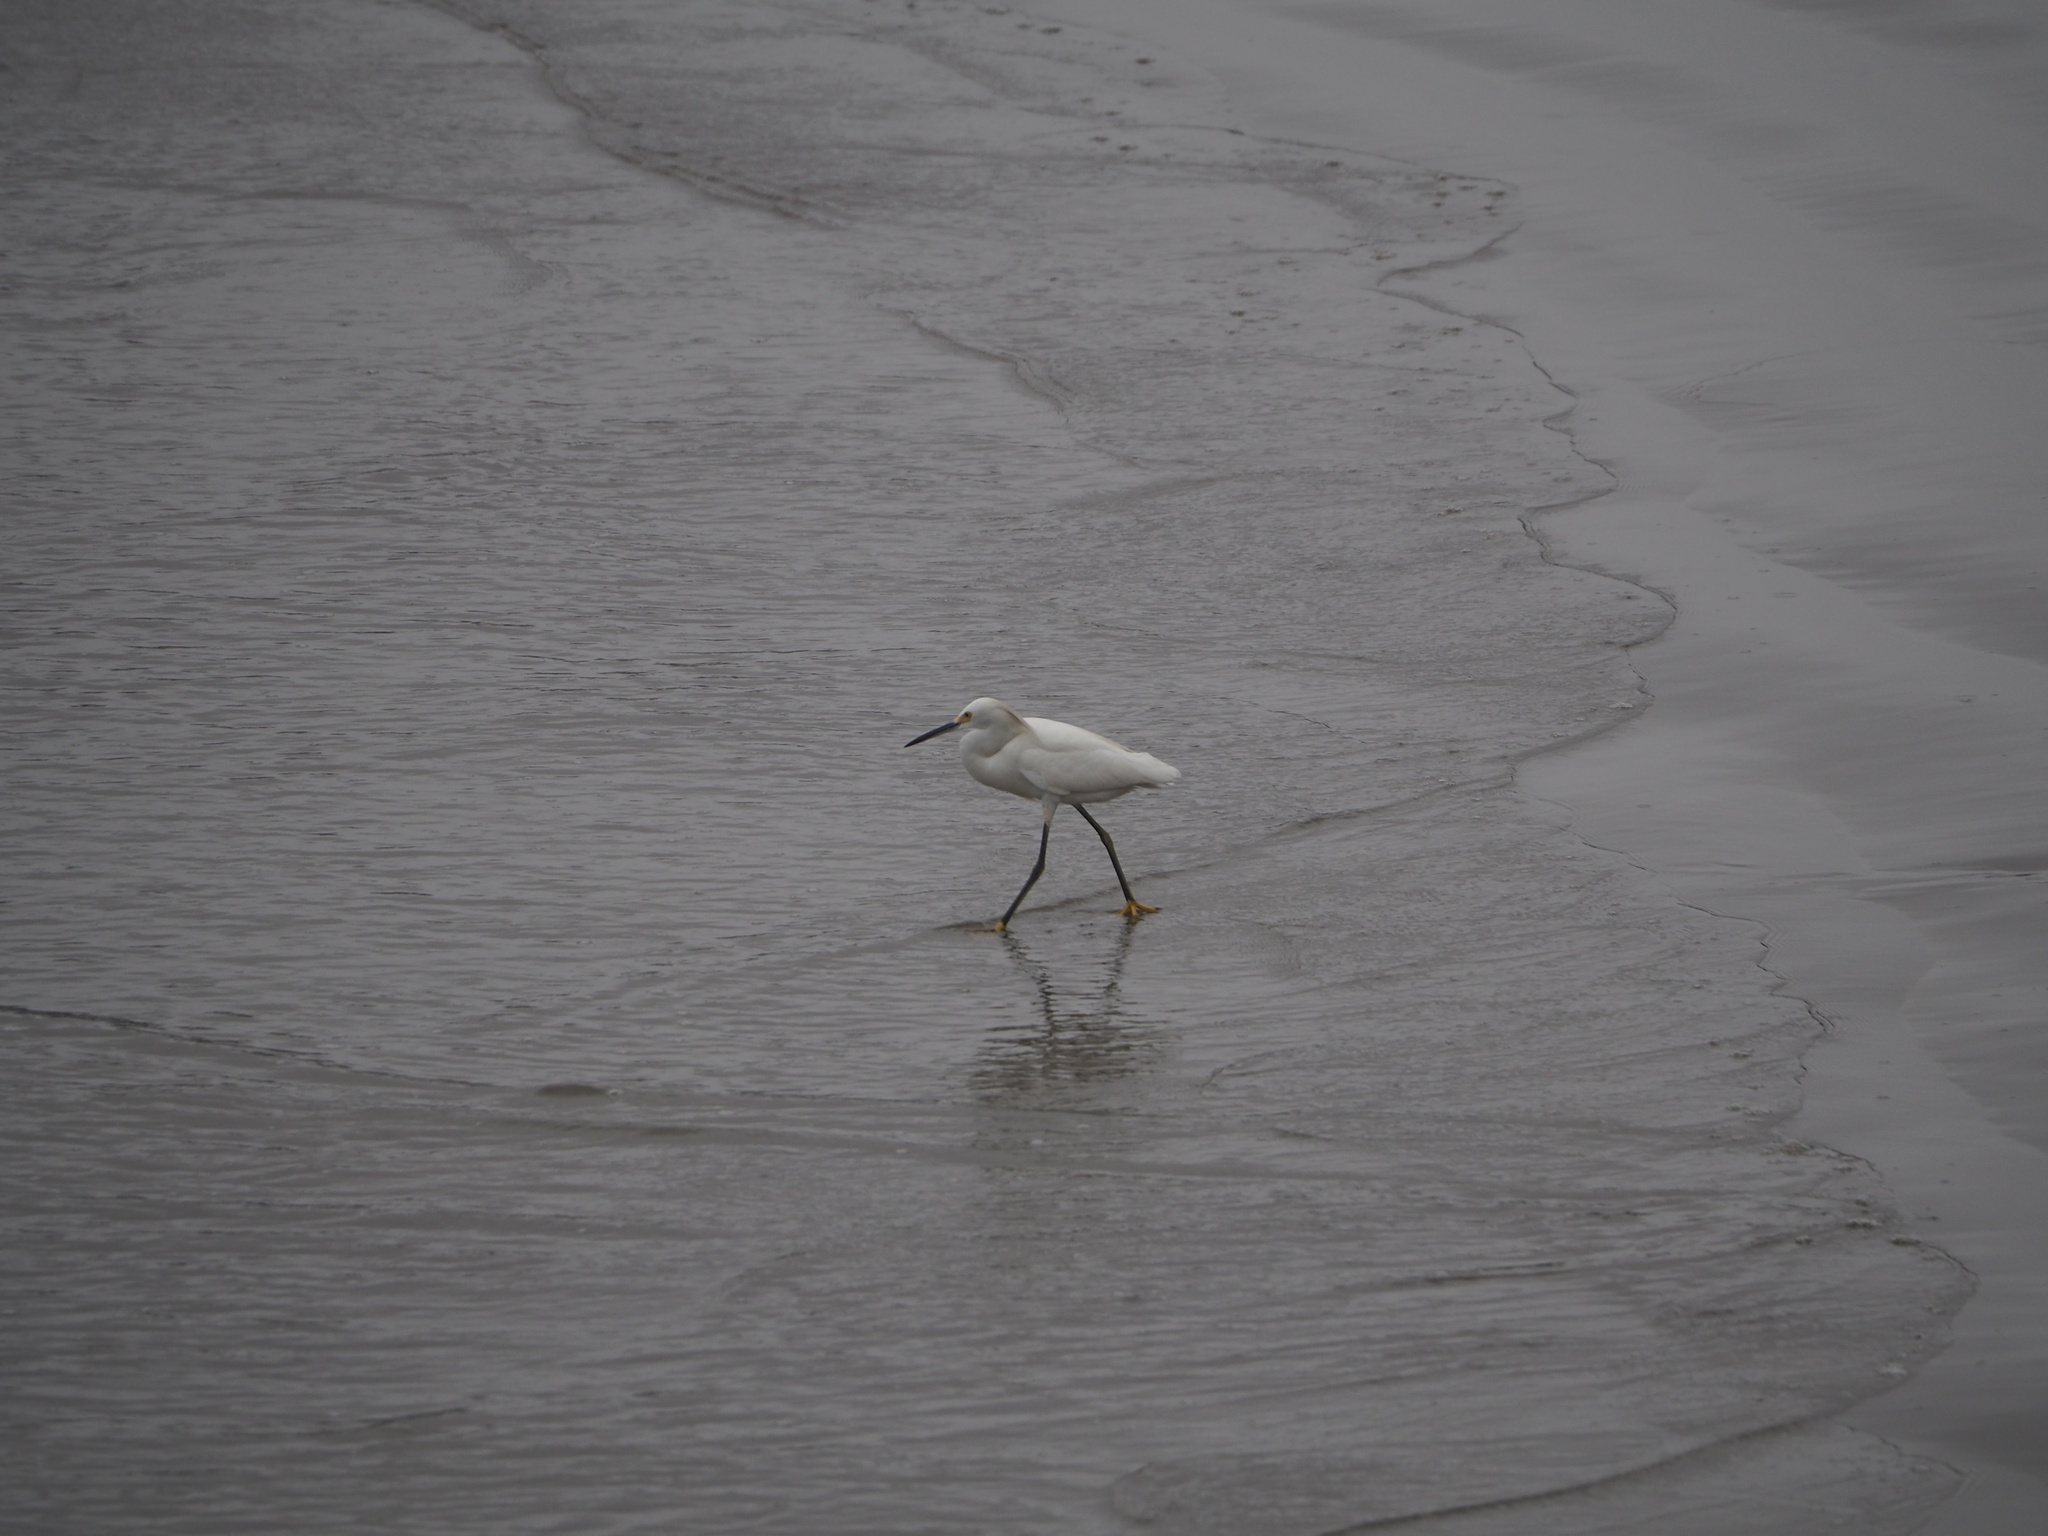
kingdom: Animalia
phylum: Chordata
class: Aves
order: Pelecaniformes
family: Ardeidae
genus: Egretta
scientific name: Egretta thula
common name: Snowy egret
